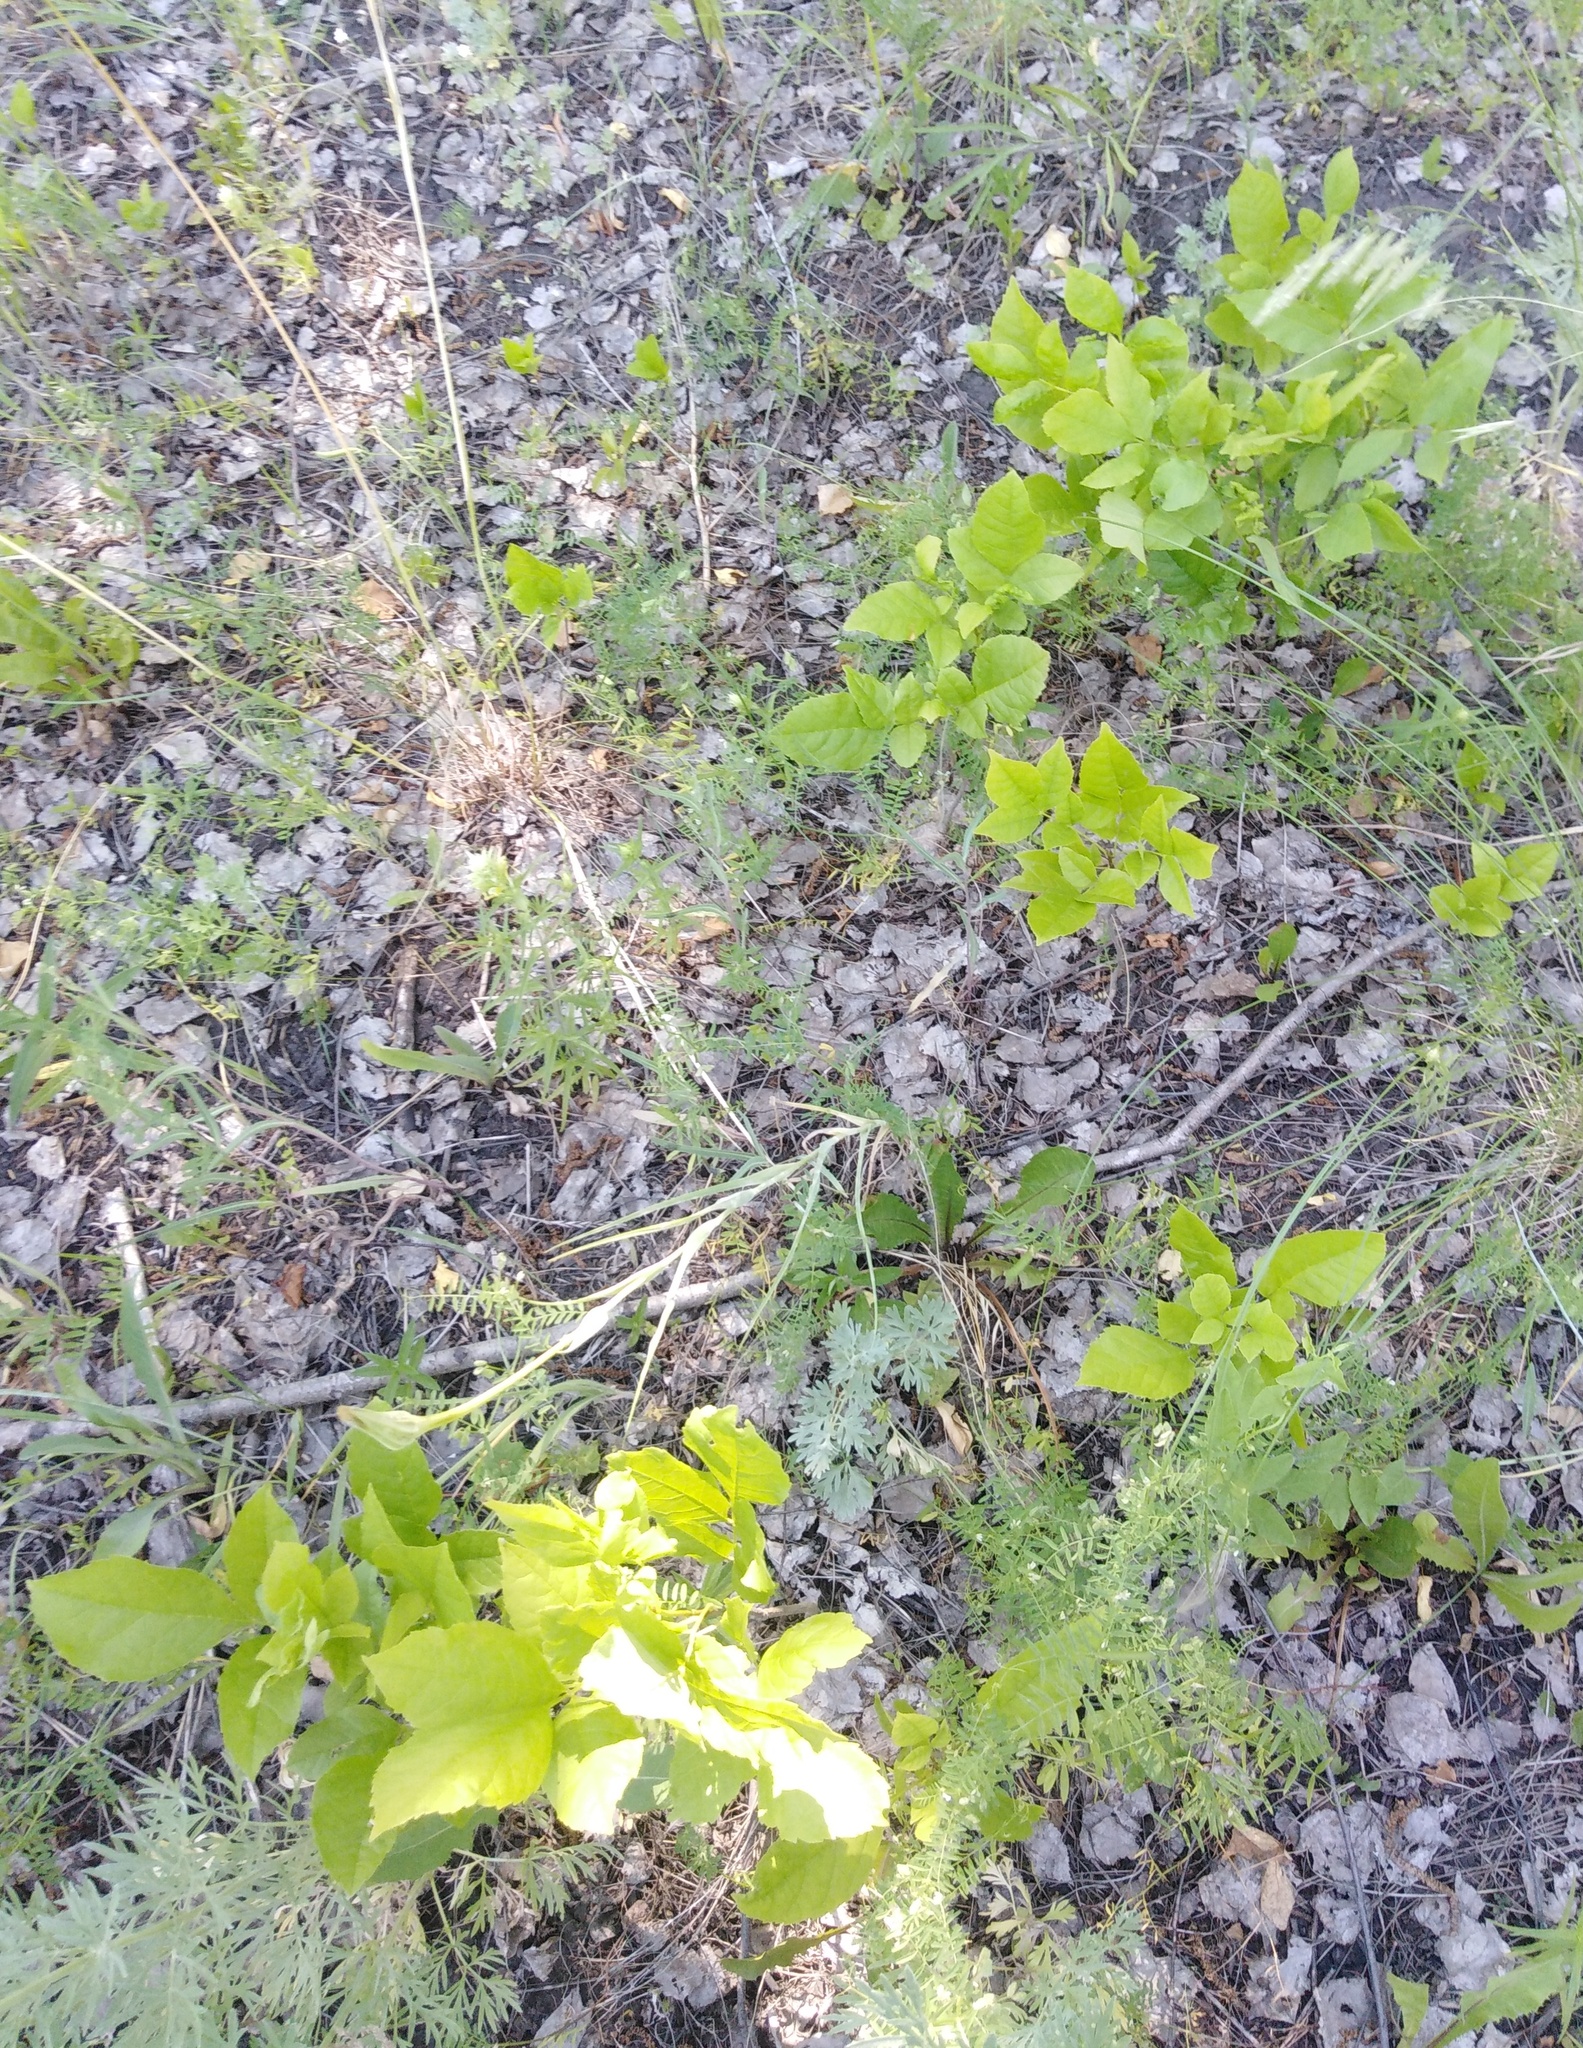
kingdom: Plantae
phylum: Tracheophyta
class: Magnoliopsida
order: Lamiales
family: Oleaceae
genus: Fraxinus
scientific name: Fraxinus pennsylvanica
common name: Green ash
